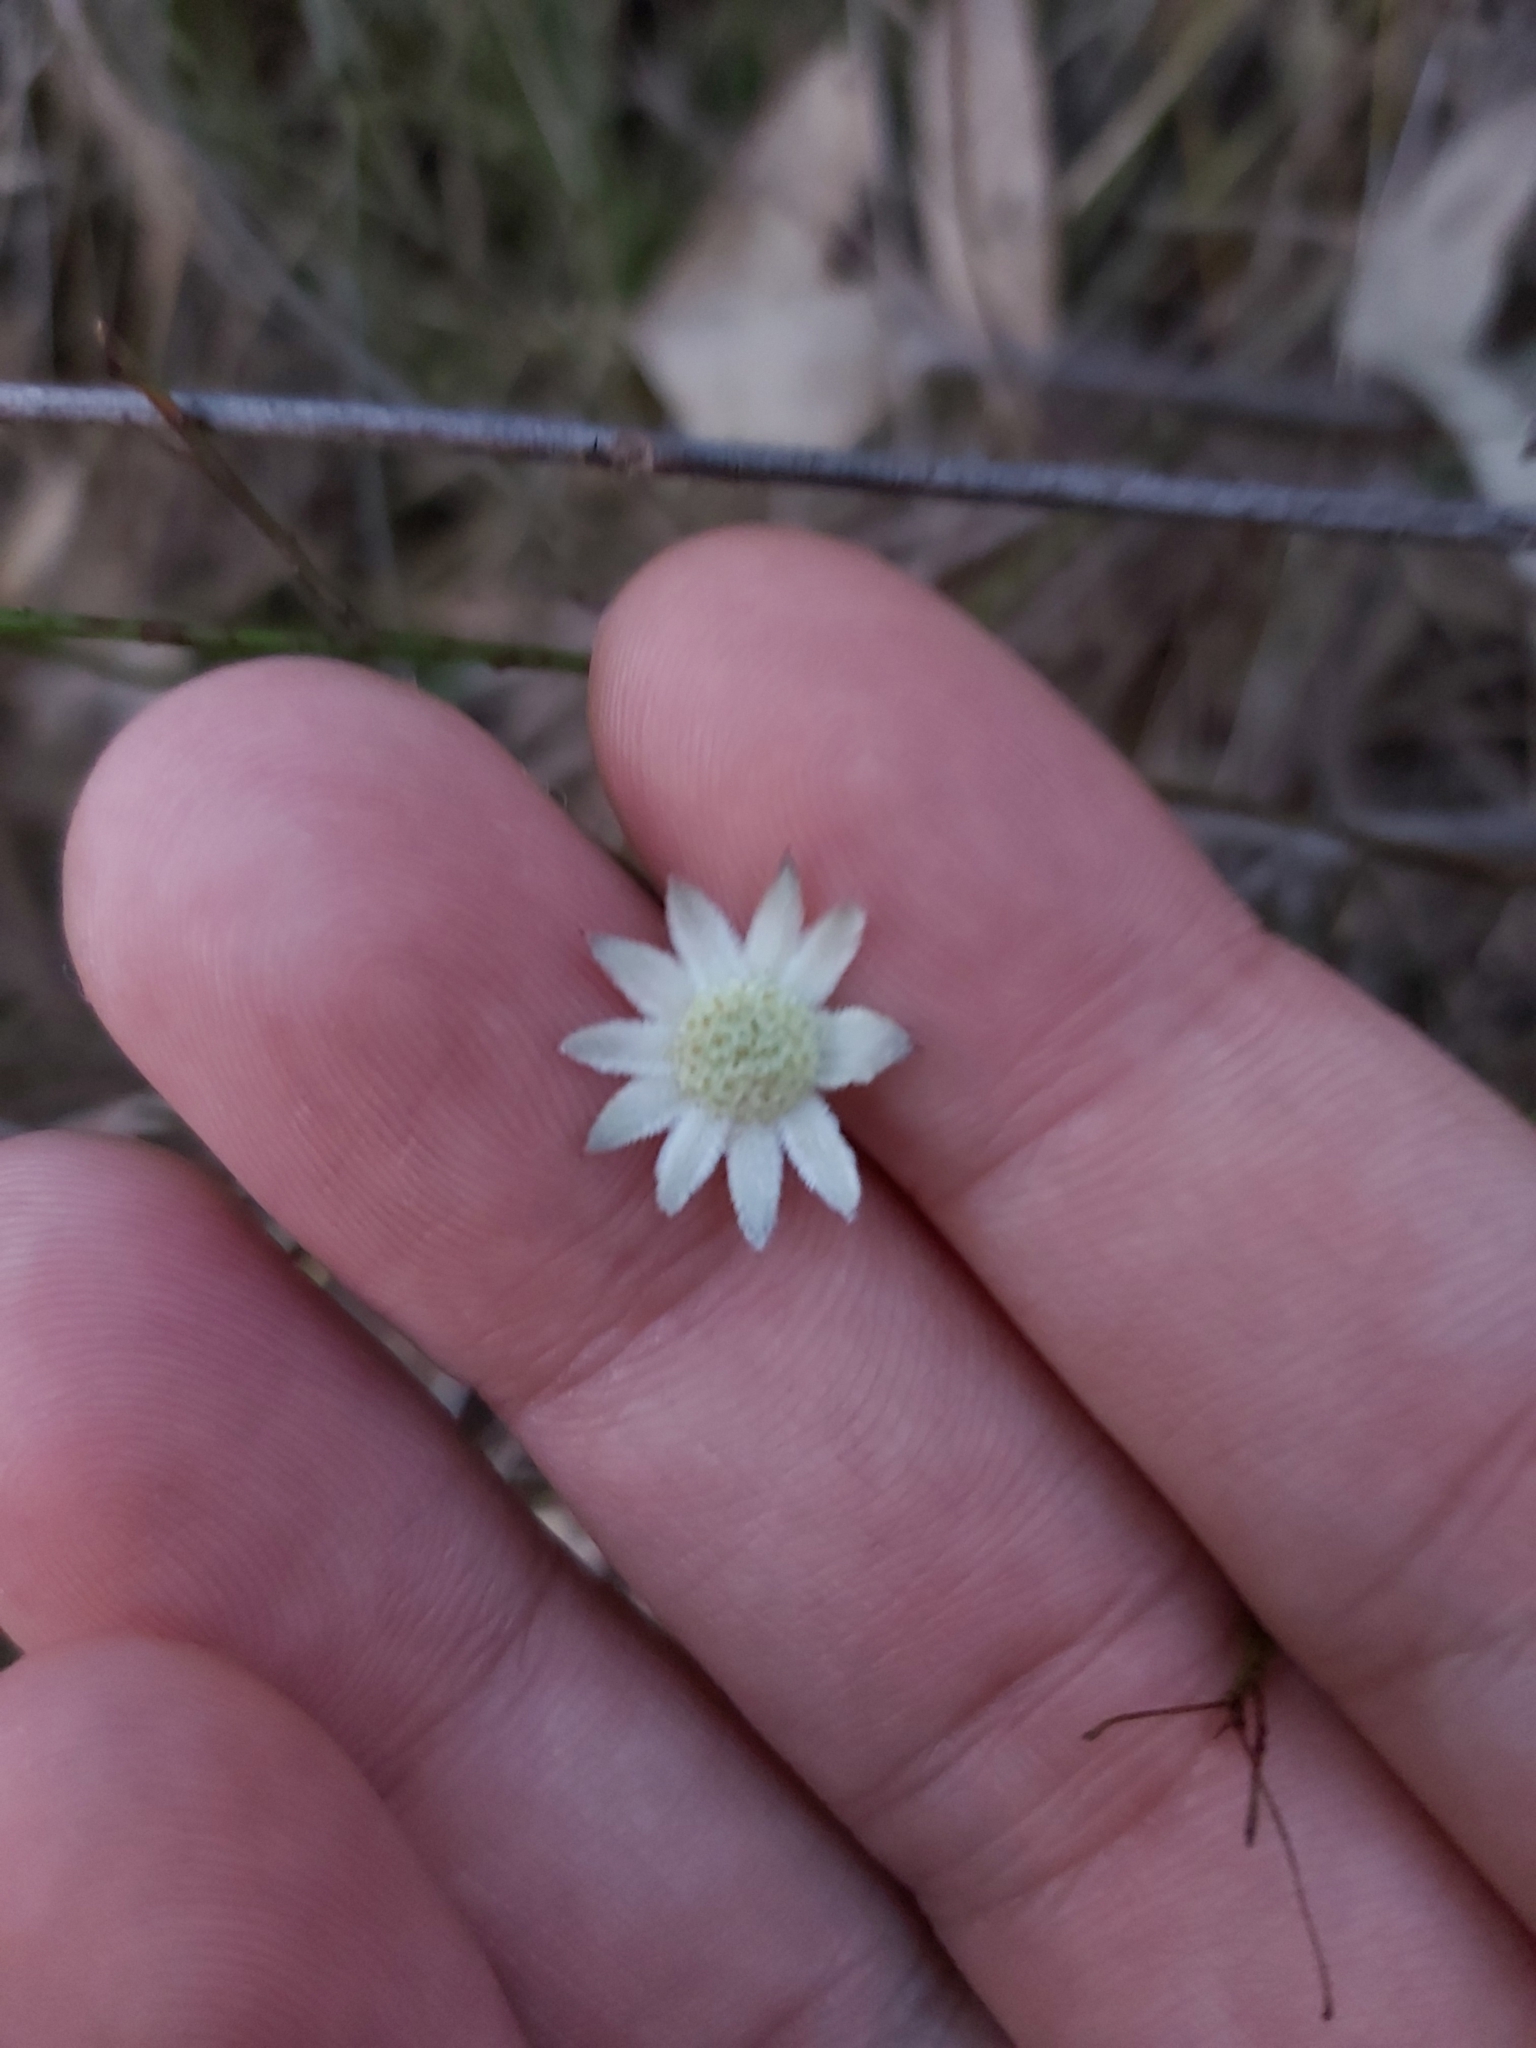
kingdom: Plantae
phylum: Tracheophyta
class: Magnoliopsida
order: Apiales
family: Apiaceae
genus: Actinotus
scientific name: Actinotus minor
